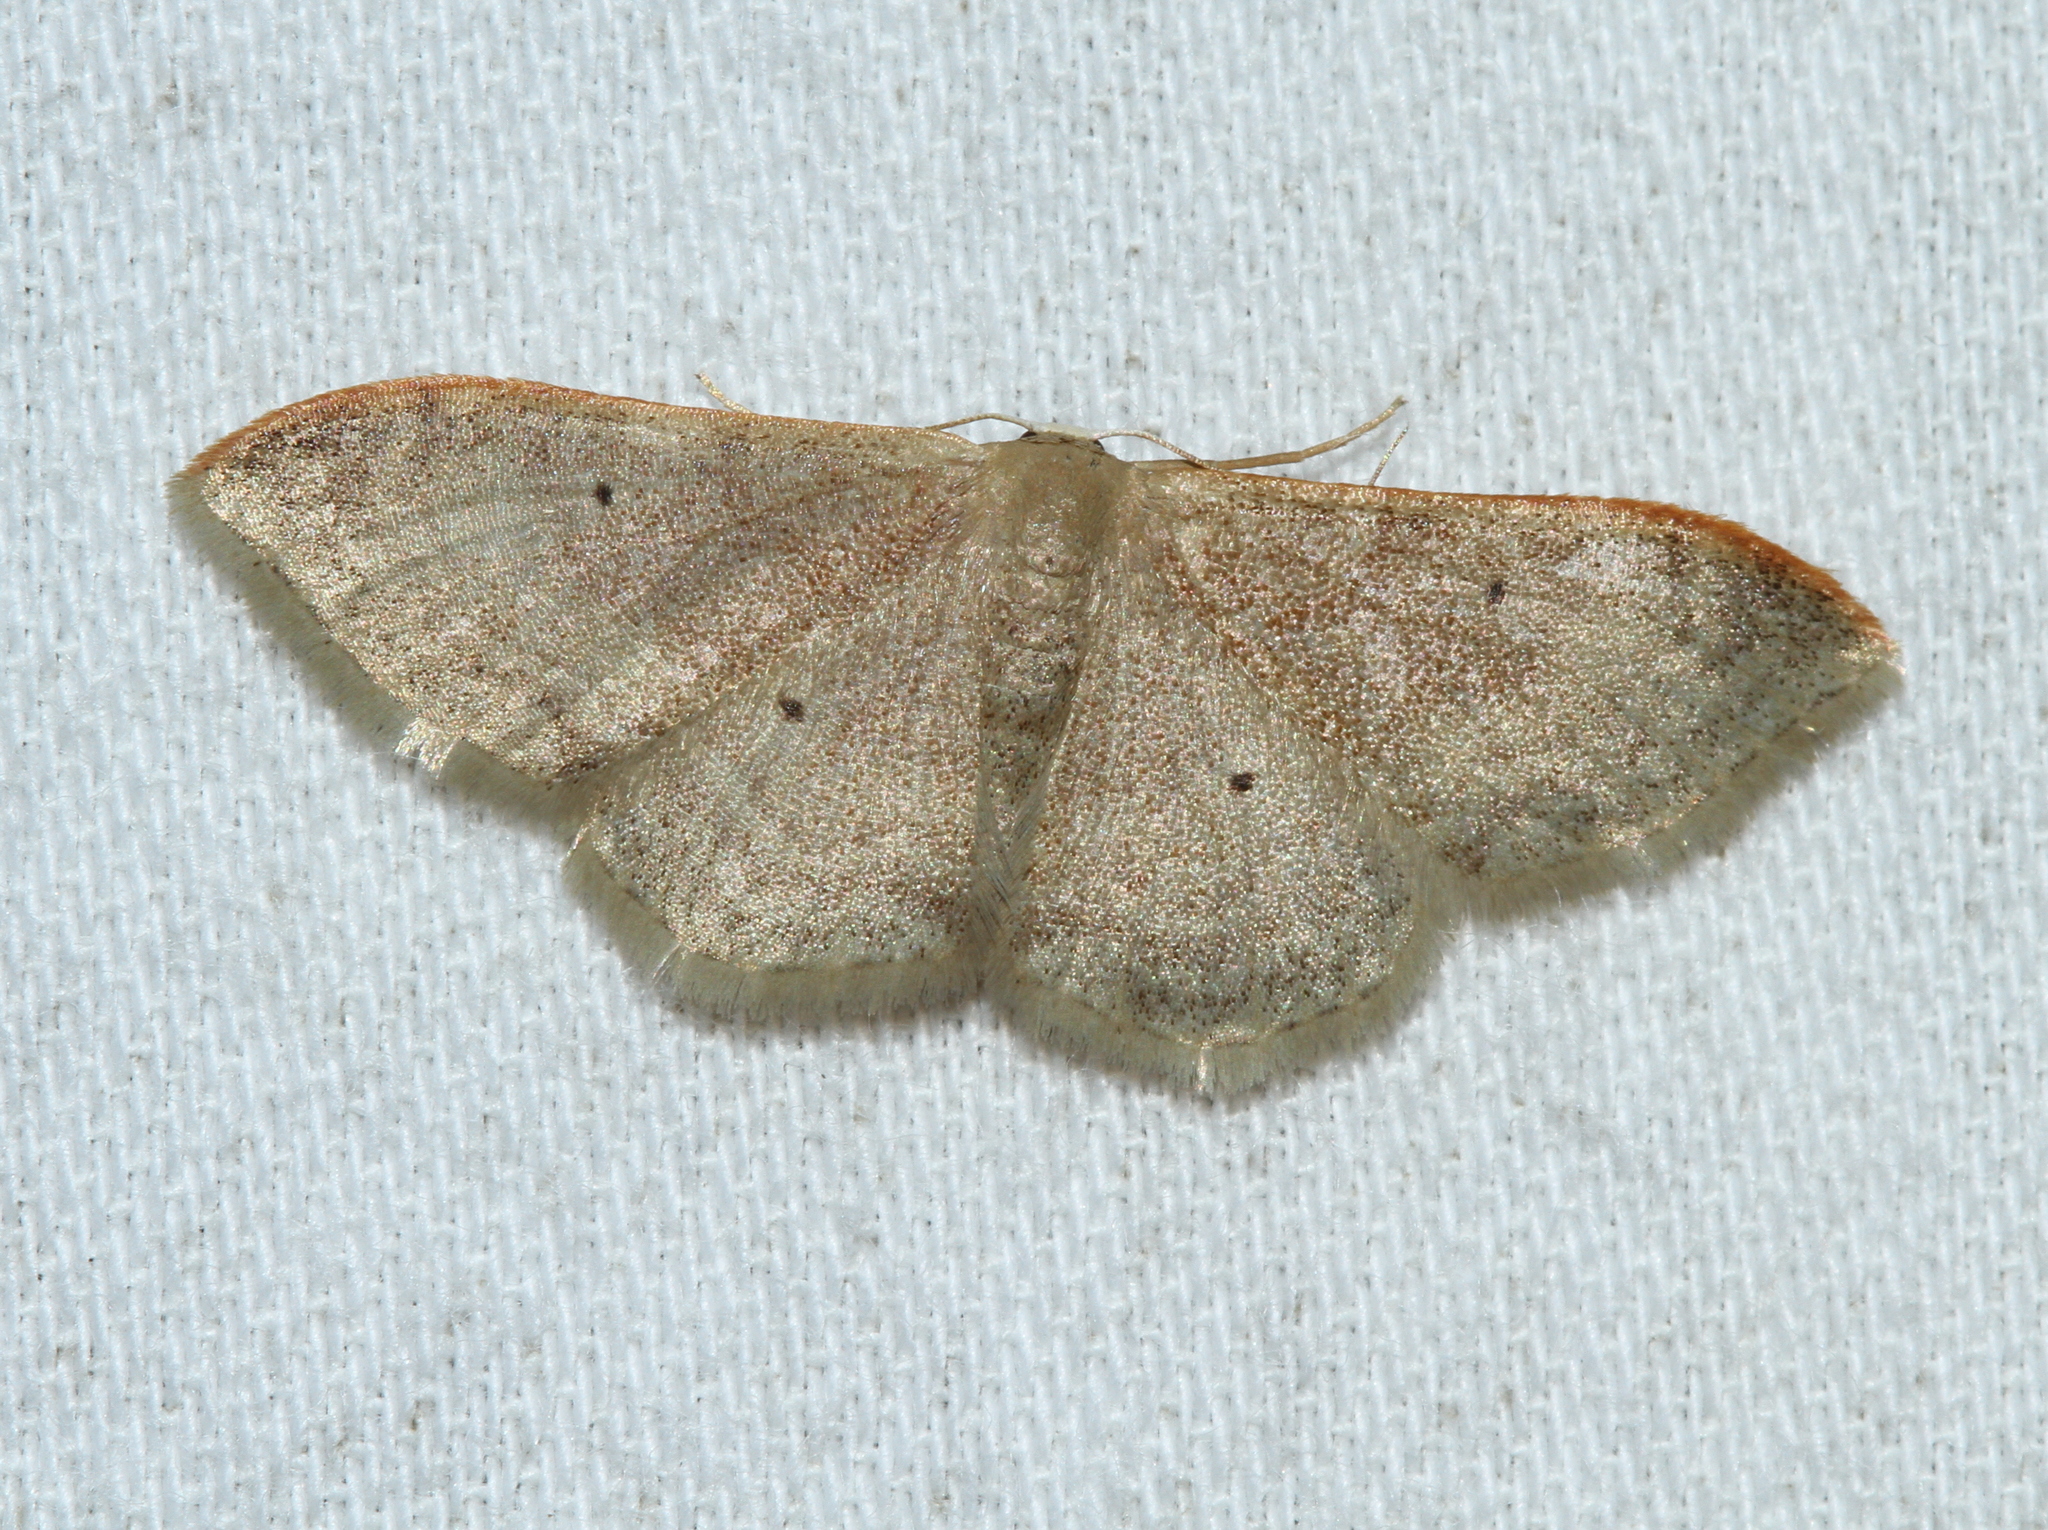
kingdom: Animalia
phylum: Arthropoda
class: Insecta
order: Lepidoptera
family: Geometridae
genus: Idaea
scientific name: Idaea degeneraria
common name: Portland ribbon wave
